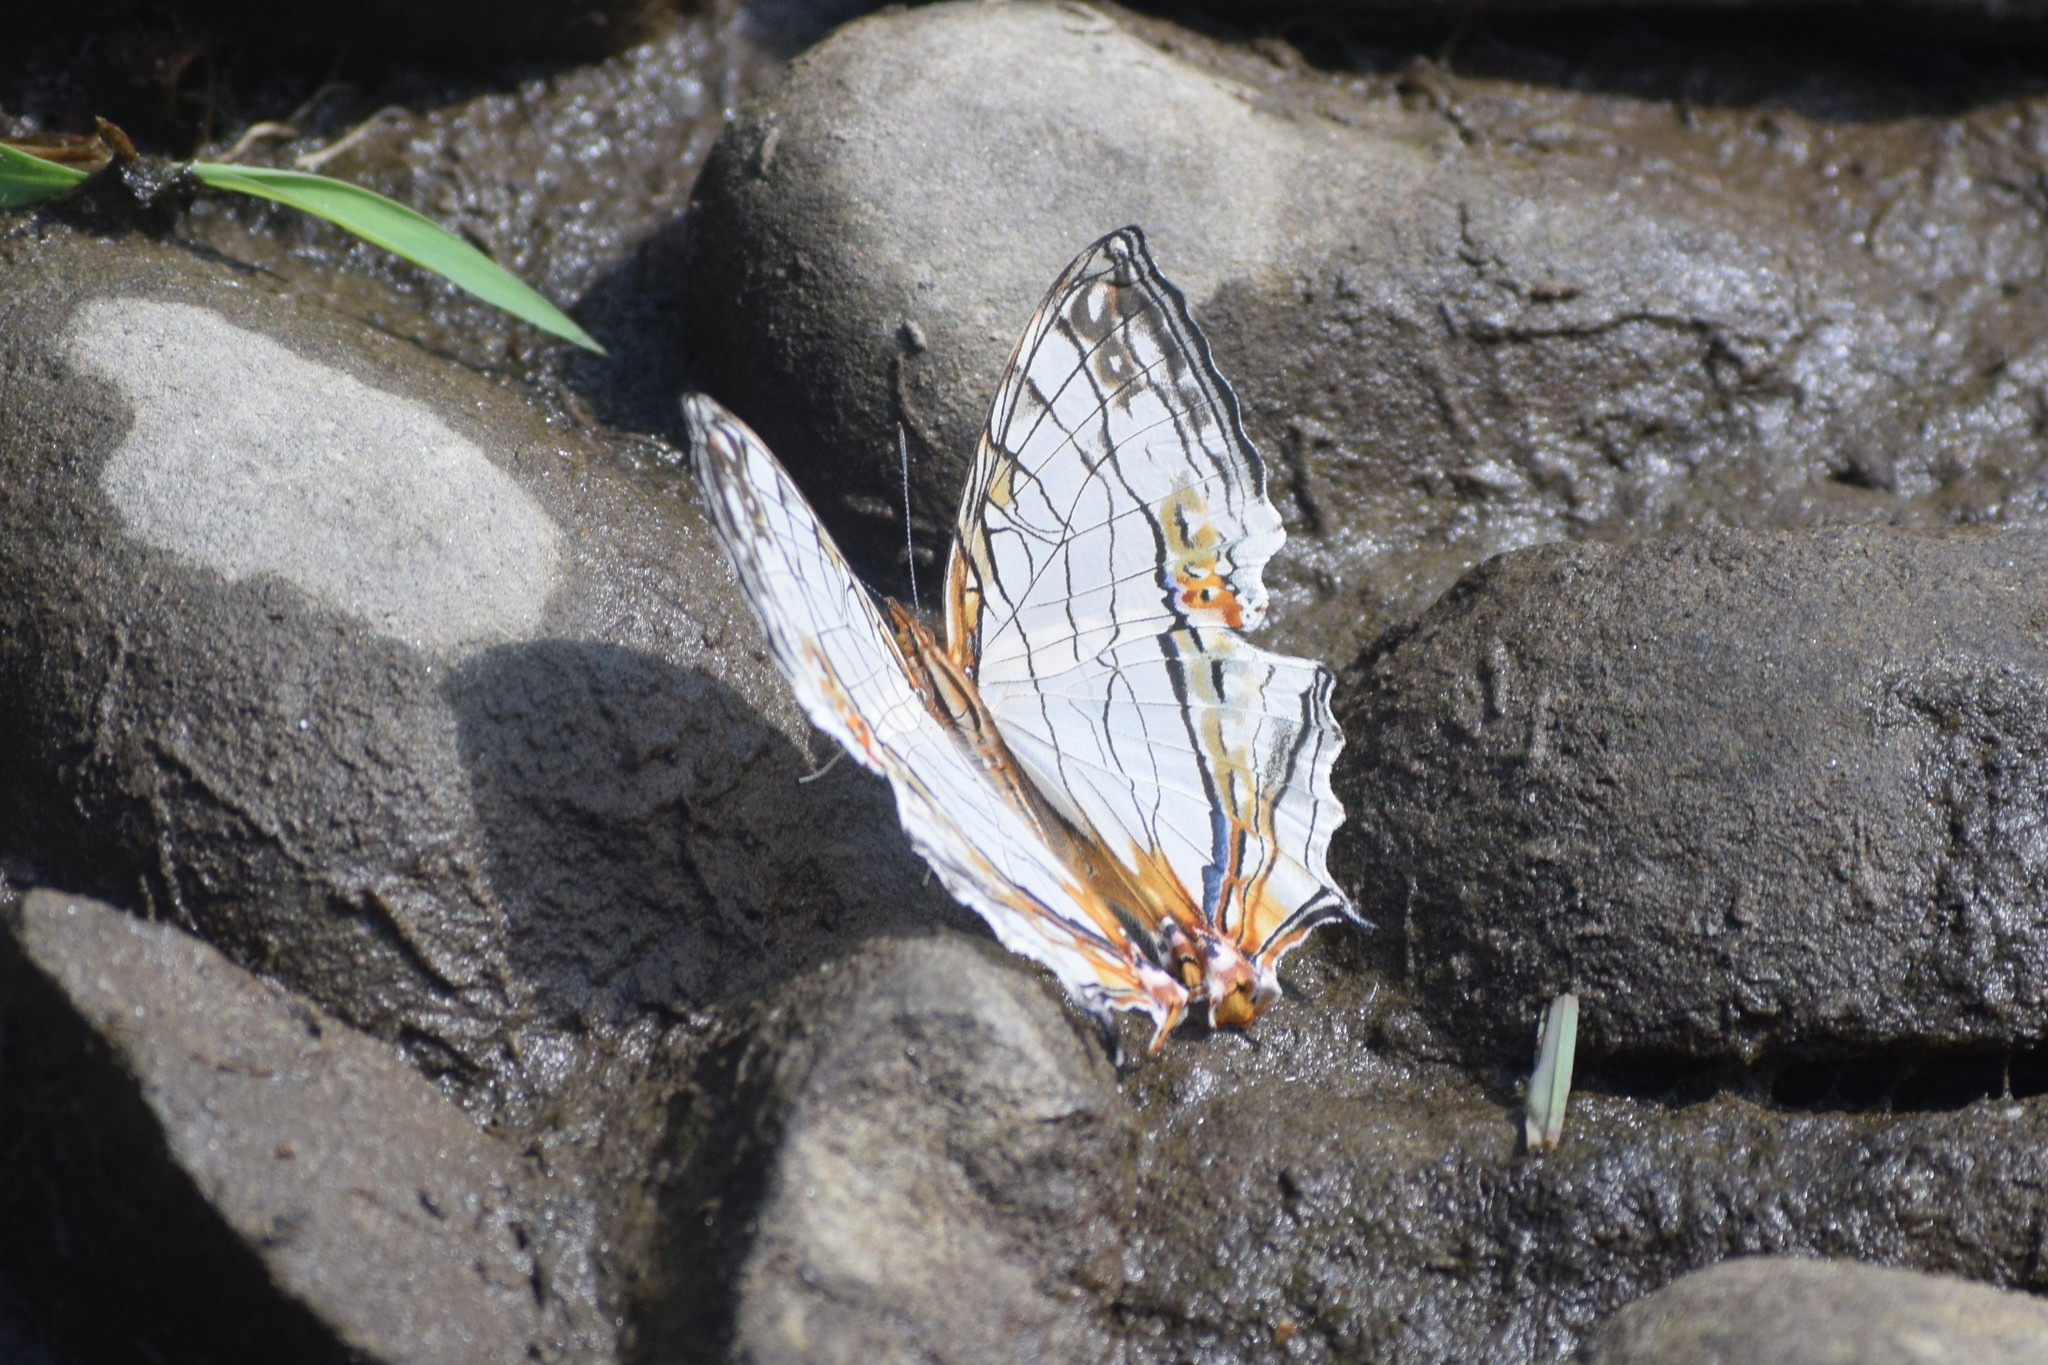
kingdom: Animalia
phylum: Arthropoda
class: Insecta
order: Lepidoptera
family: Nymphalidae
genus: Cyrestis
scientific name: Cyrestis thyodamas
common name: Common mapwing
